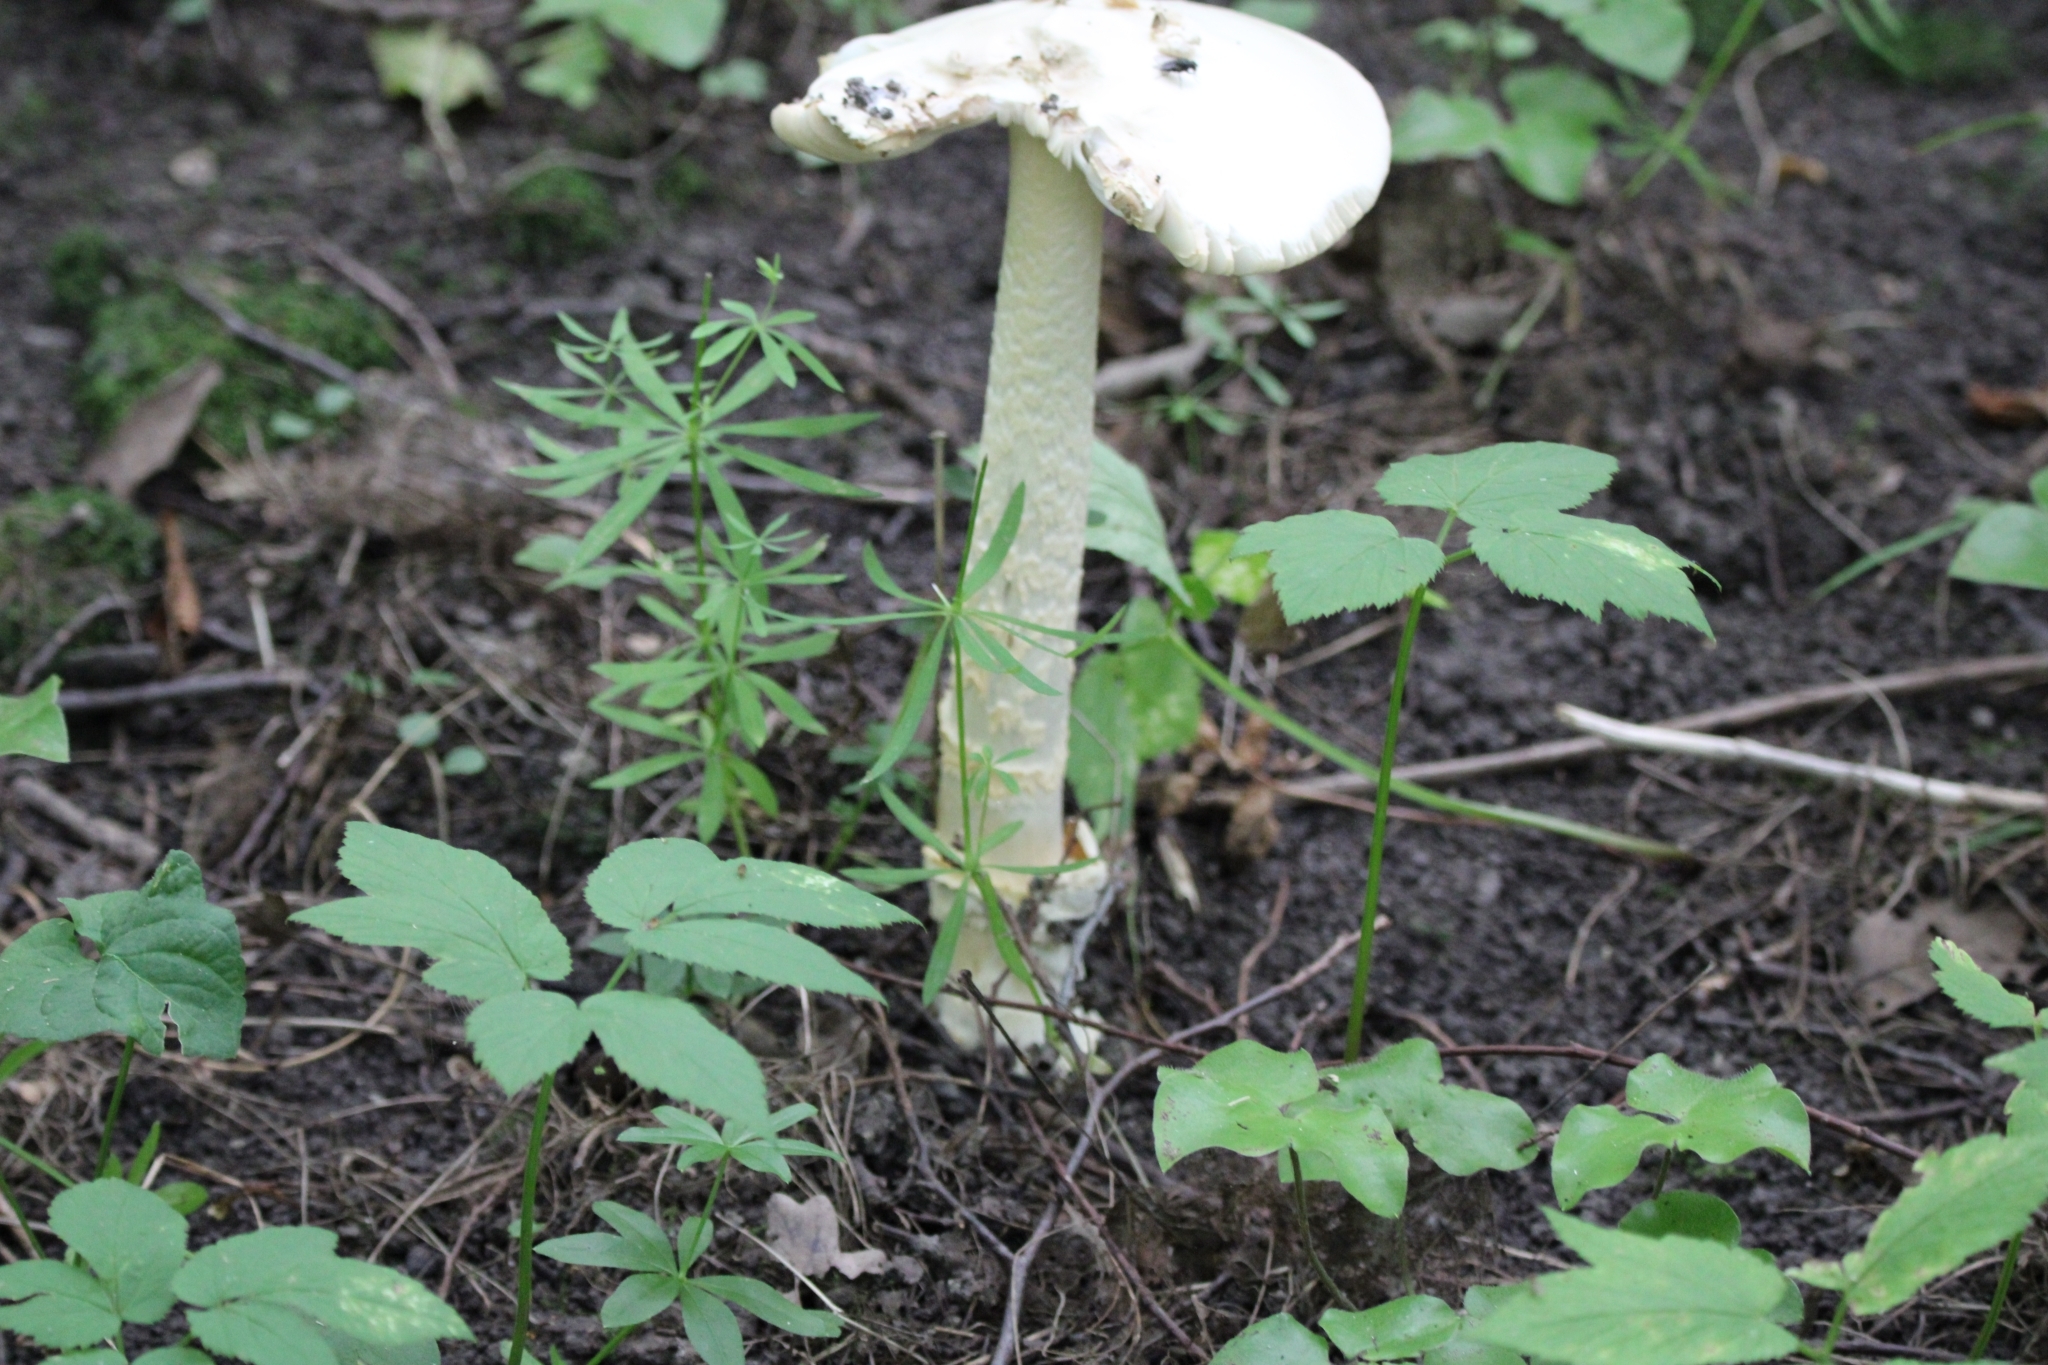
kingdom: Plantae
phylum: Tracheophyta
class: Magnoliopsida
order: Apiales
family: Apiaceae
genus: Aegopodium
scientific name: Aegopodium podagraria
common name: Ground-elder
